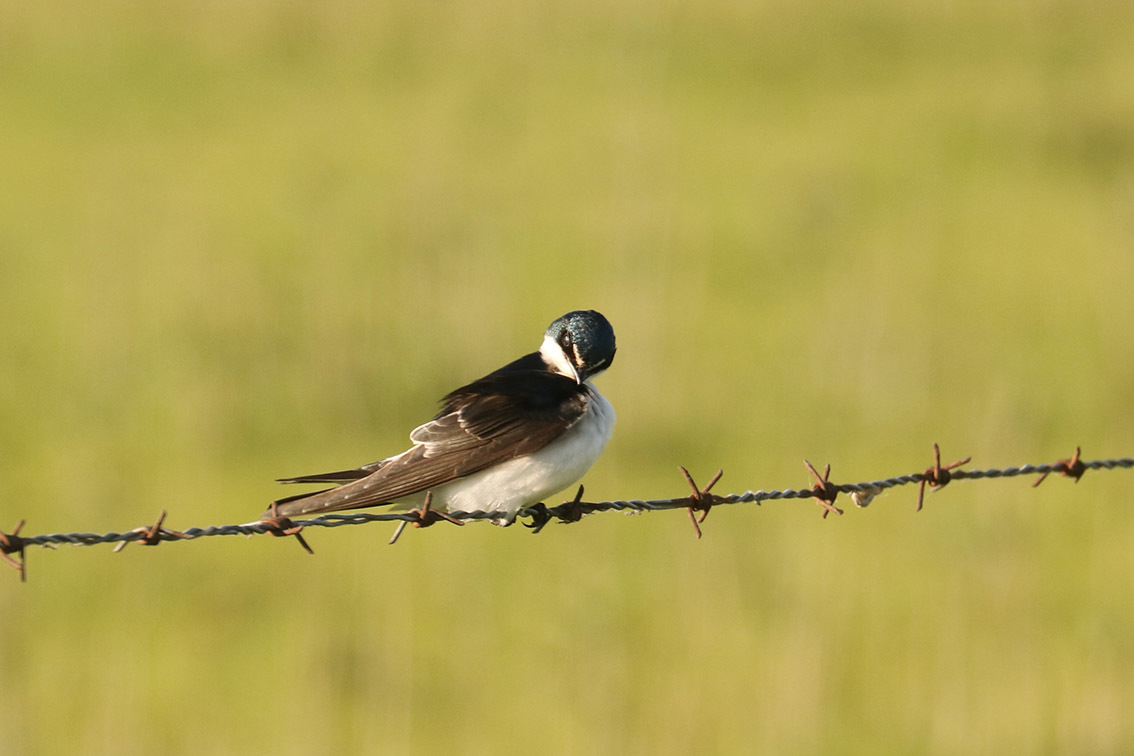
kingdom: Animalia
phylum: Chordata
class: Aves
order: Passeriformes
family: Hirundinidae
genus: Tachycineta
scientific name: Tachycineta leucorrhoa
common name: White-rumped swallow
